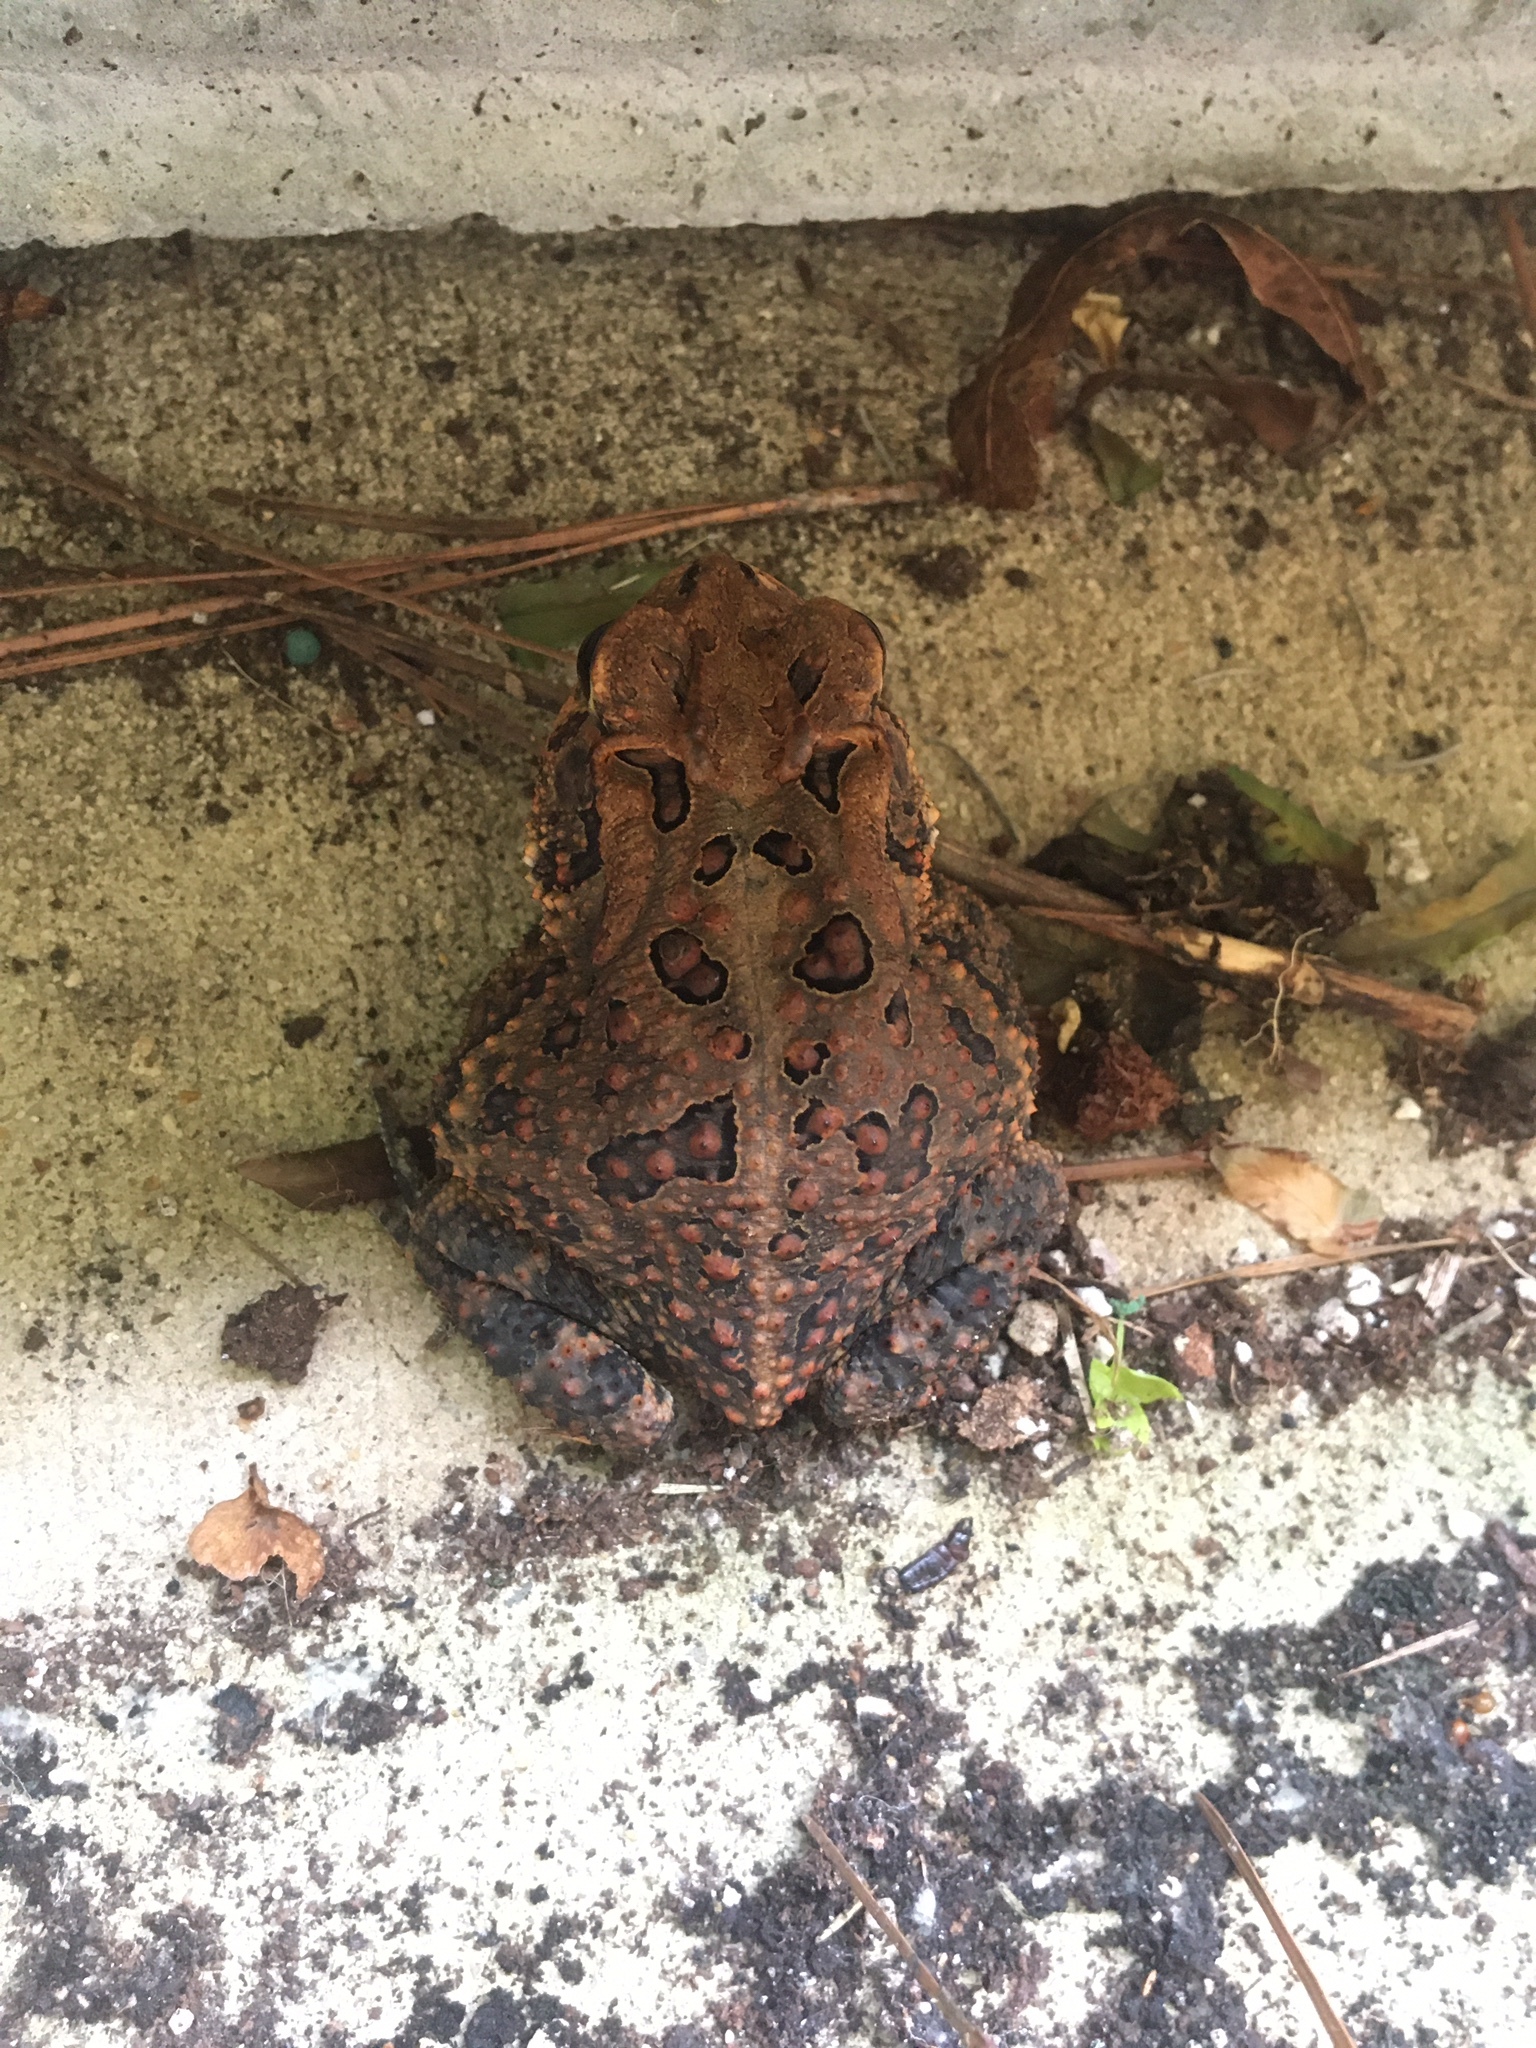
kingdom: Animalia
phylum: Chordata
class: Amphibia
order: Anura
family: Bufonidae
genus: Anaxyrus
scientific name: Anaxyrus terrestris
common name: Southern toad
